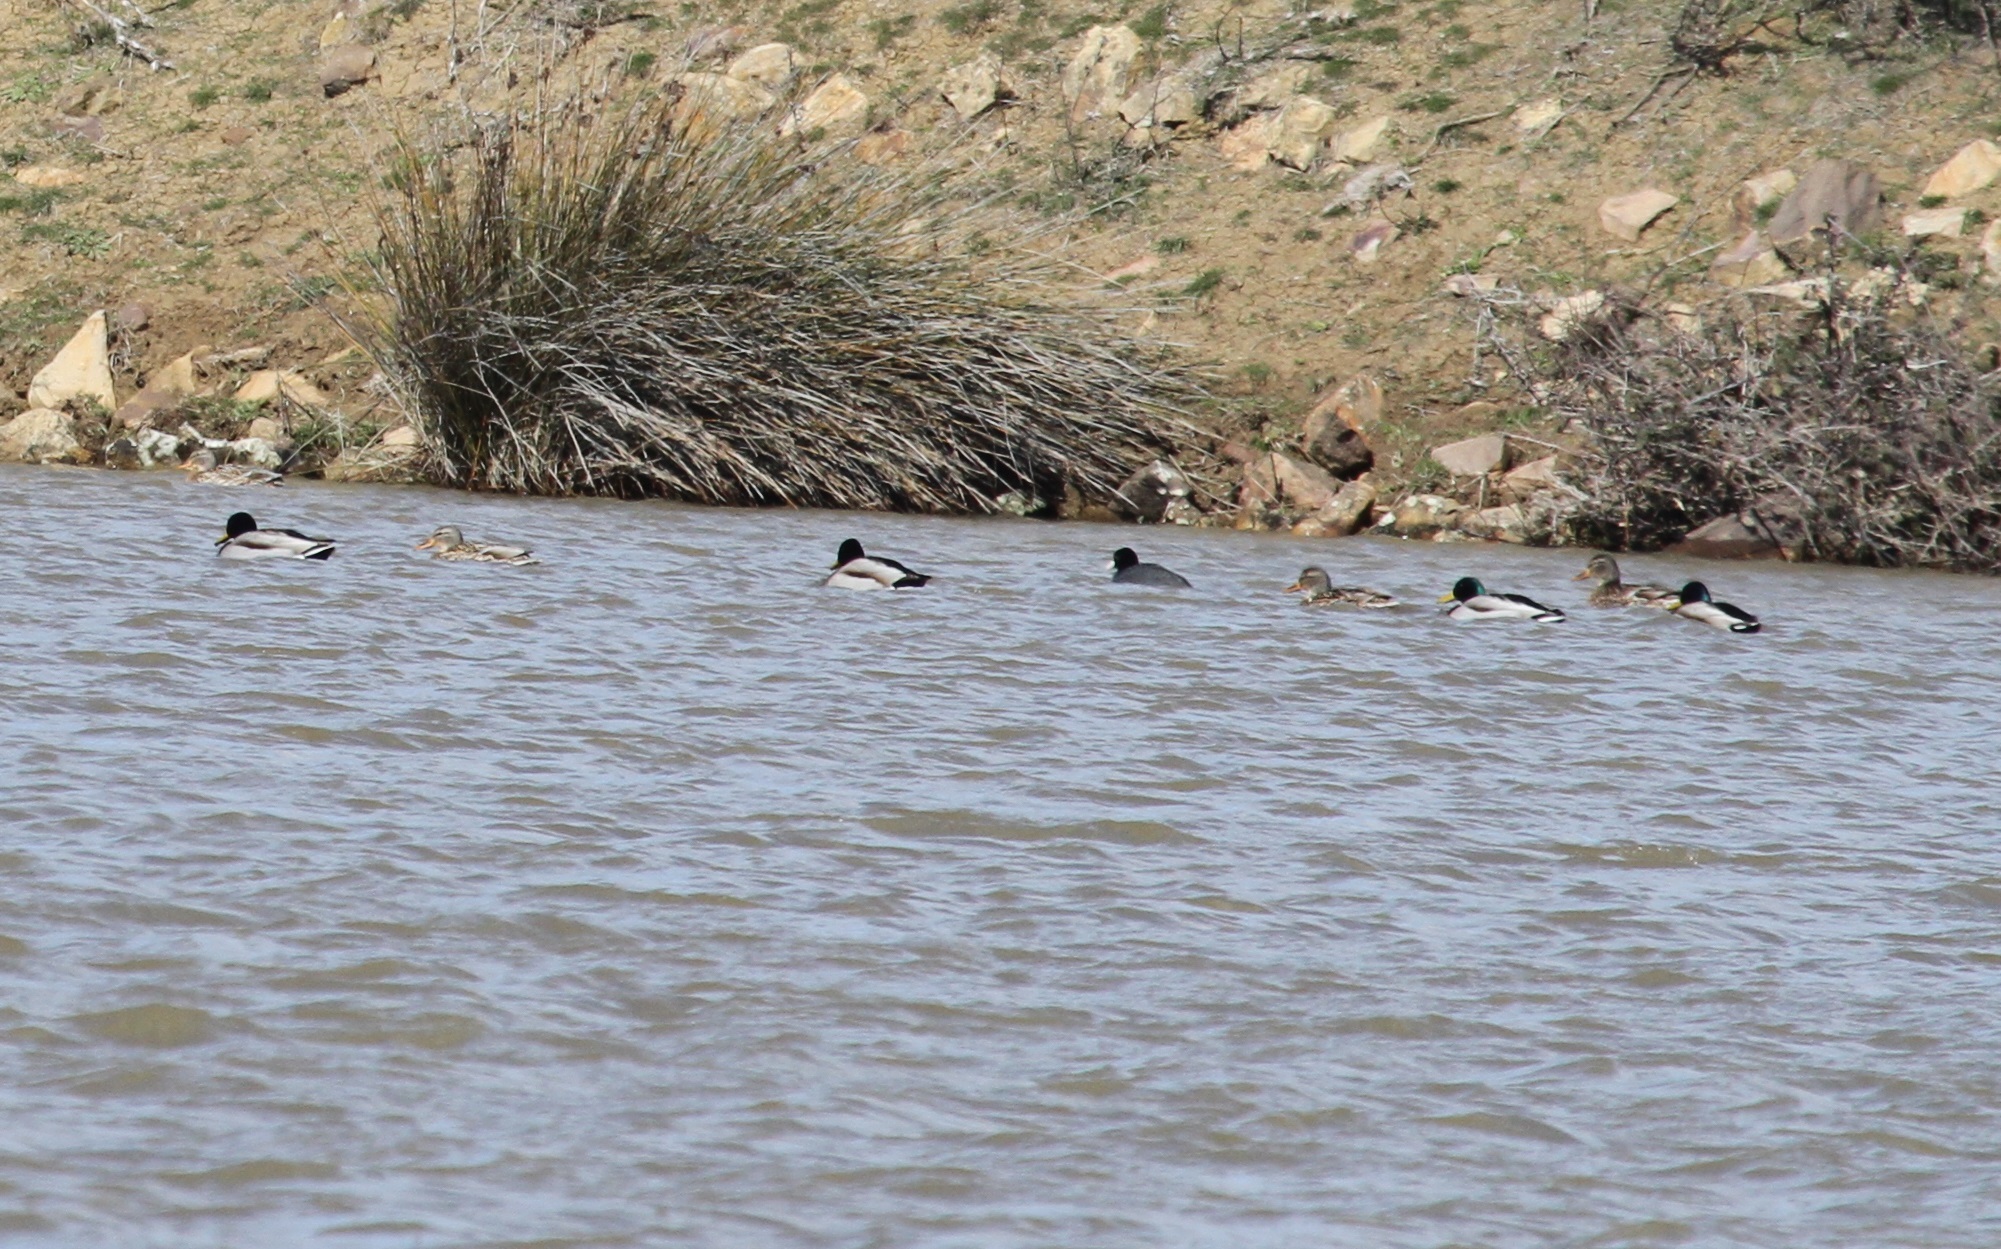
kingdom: Animalia
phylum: Chordata
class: Aves
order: Anseriformes
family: Anatidae
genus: Anas
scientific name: Anas platyrhynchos
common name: Mallard
